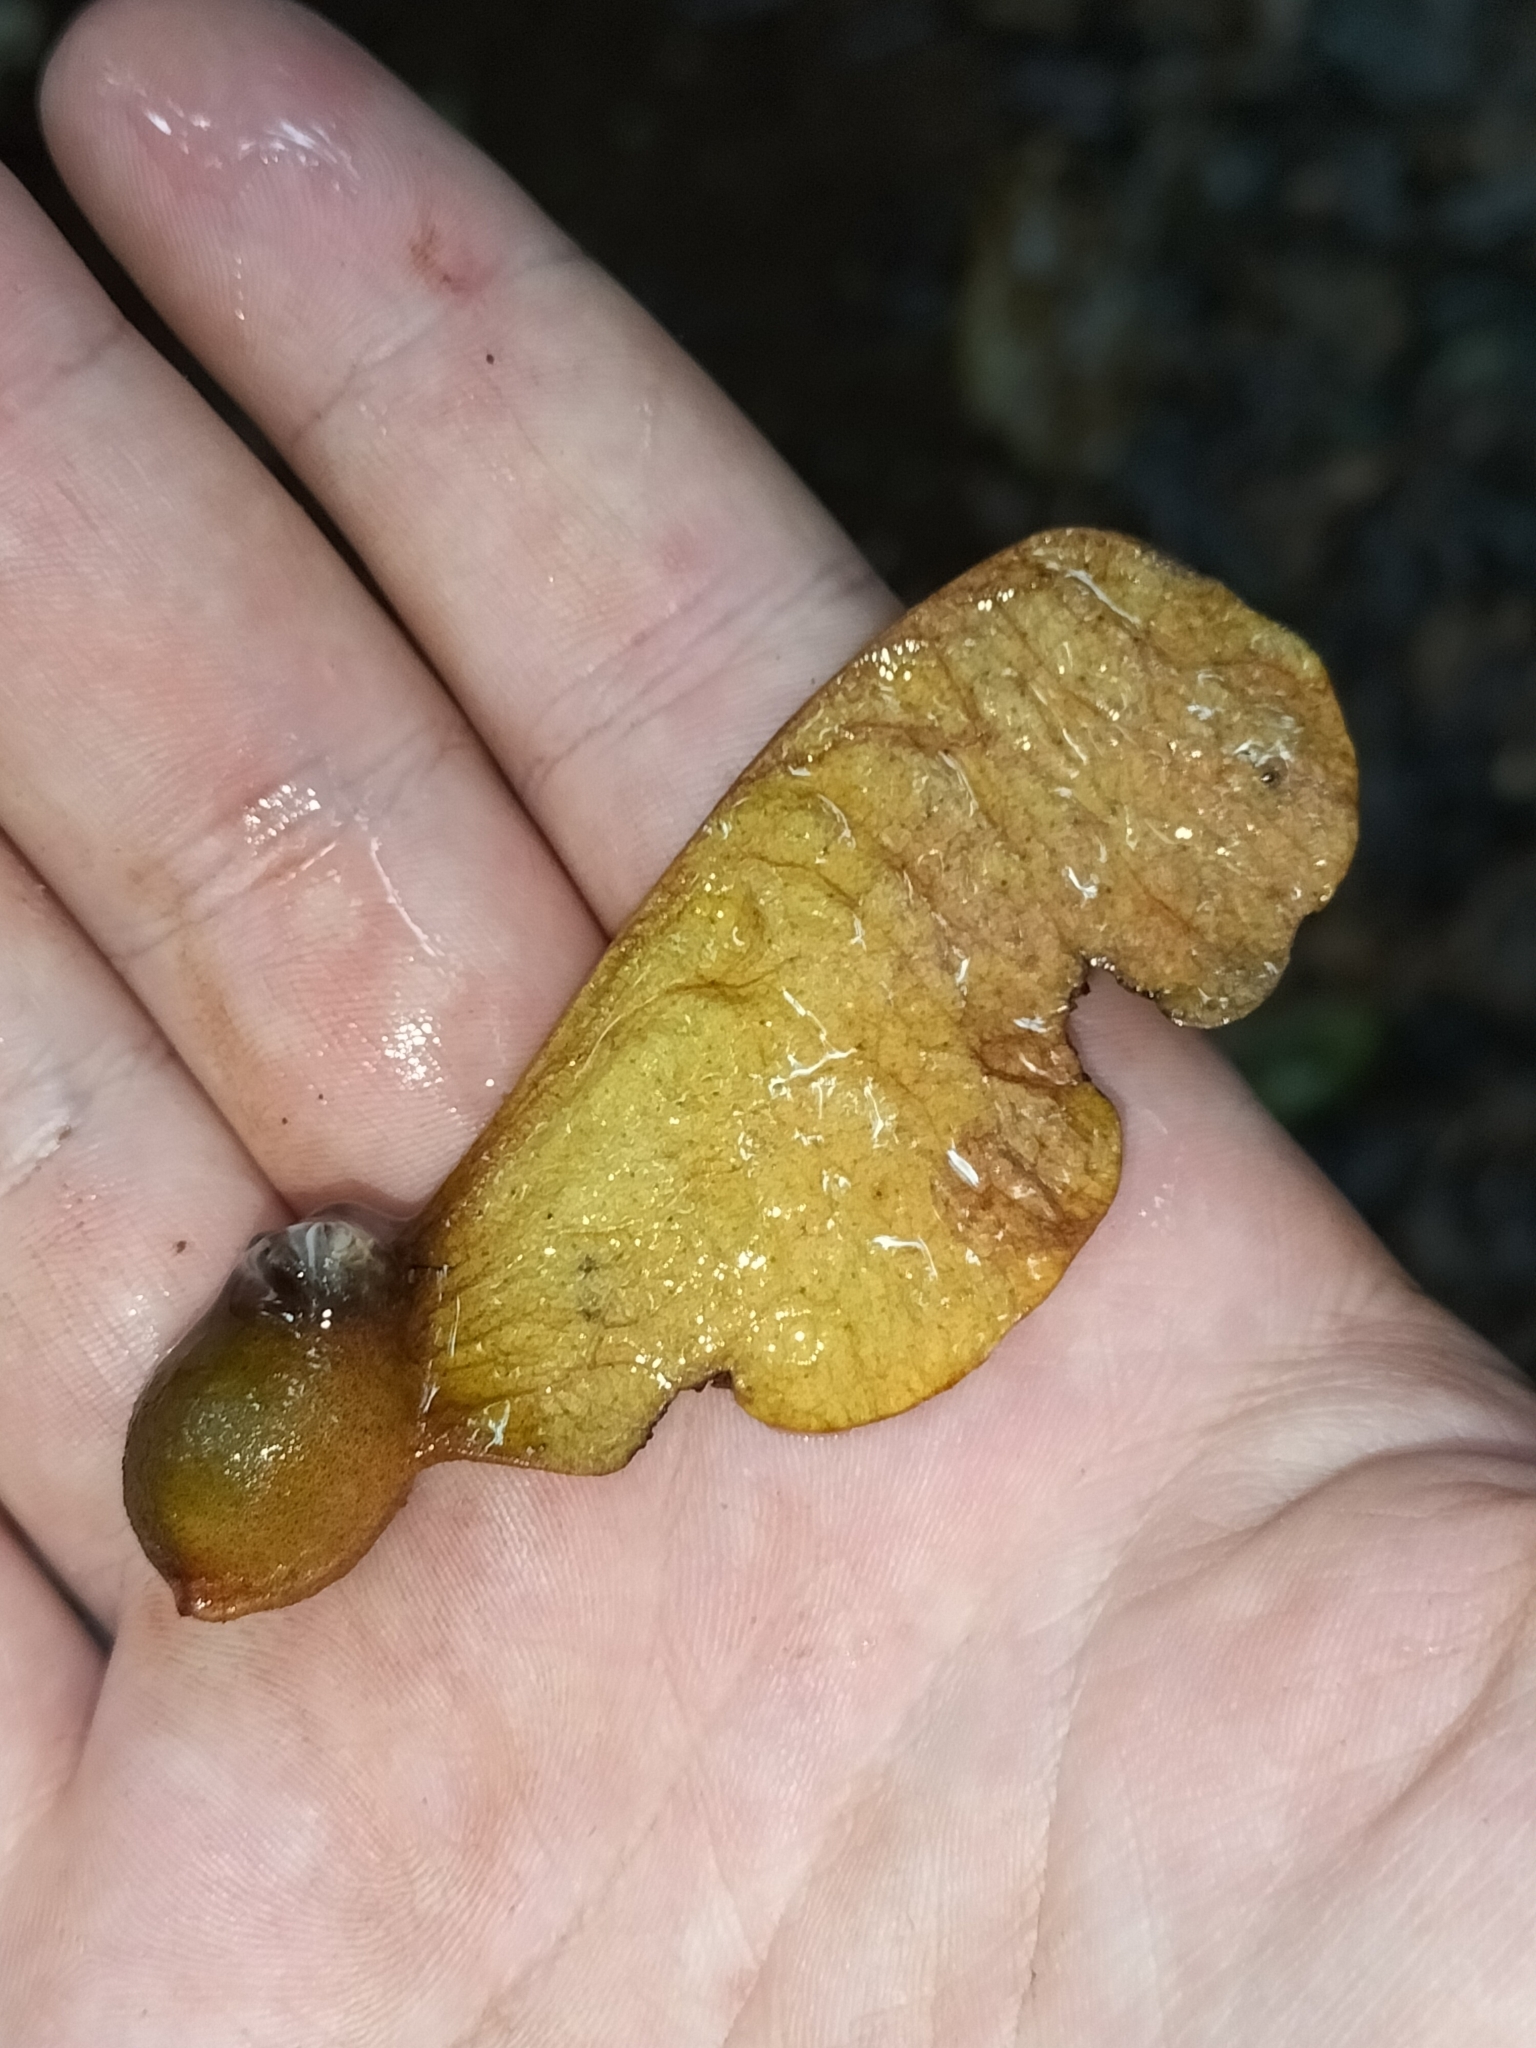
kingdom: Plantae
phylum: Tracheophyta
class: Magnoliopsida
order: Malvales
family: Malvaceae
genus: Heritiera
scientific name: Heritiera
